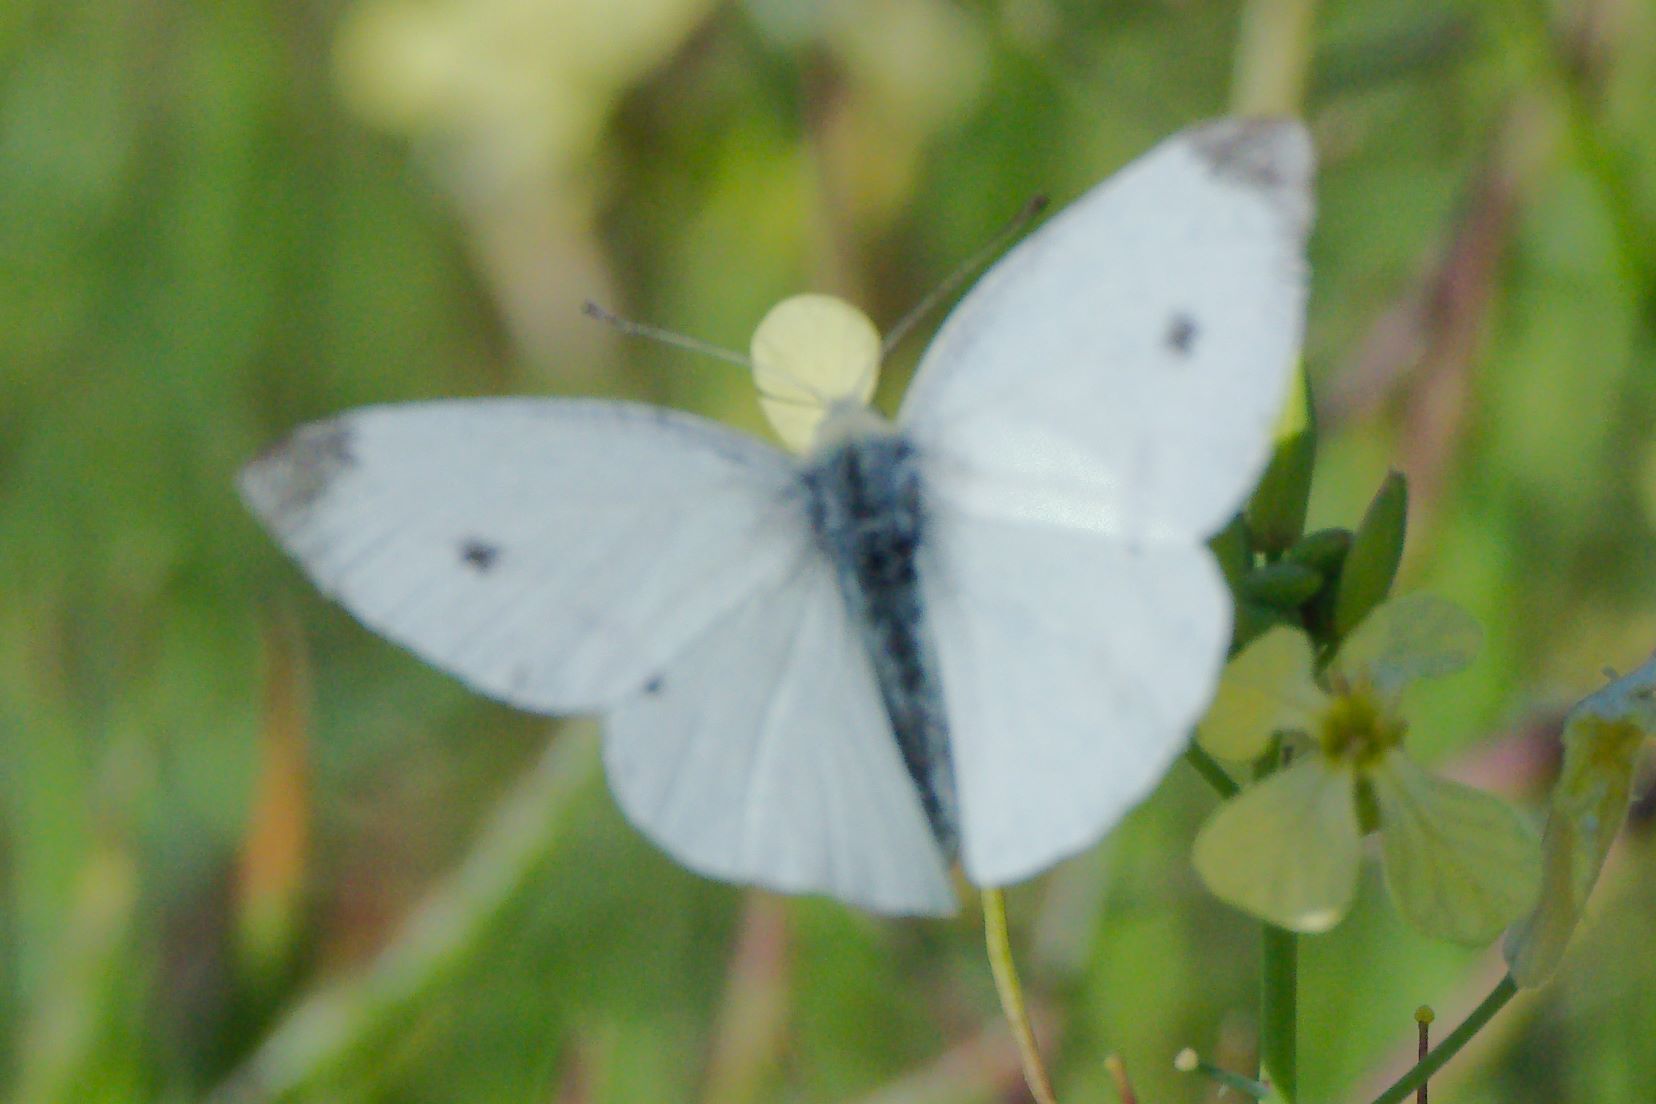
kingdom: Animalia
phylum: Arthropoda
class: Insecta
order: Lepidoptera
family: Pieridae
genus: Pieris
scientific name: Pieris rapae
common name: Small white
